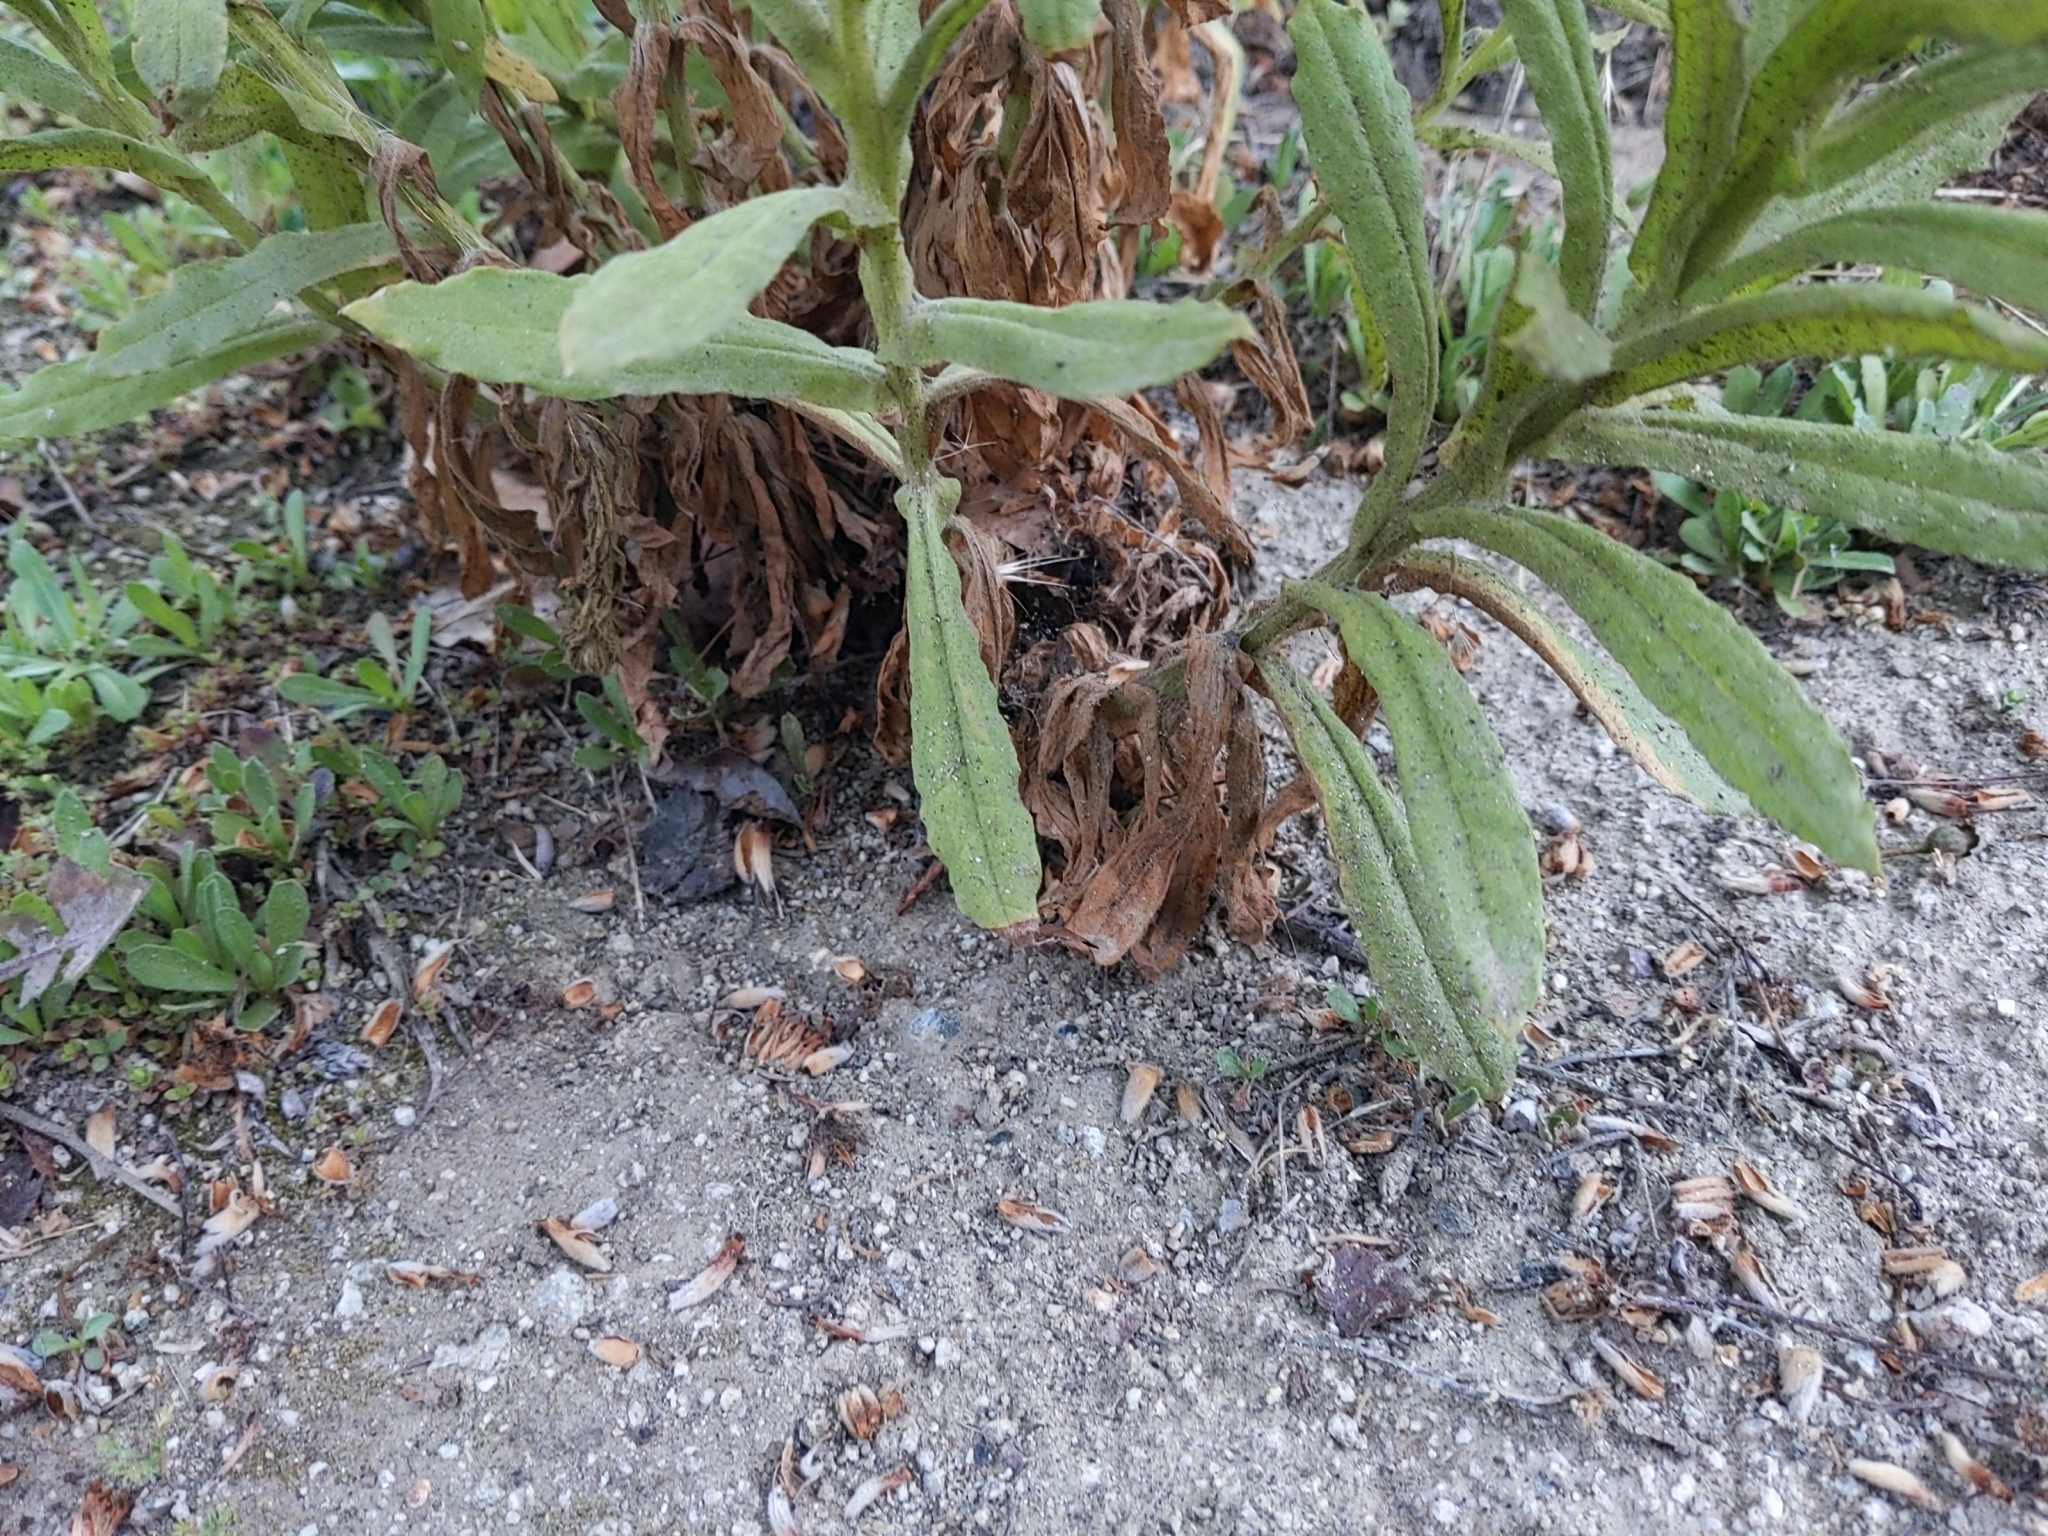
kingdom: Plantae
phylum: Tracheophyta
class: Magnoliopsida
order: Asterales
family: Asteraceae
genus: Pseudognaphalium
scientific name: Pseudognaphalium californicum
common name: California rabbit-tobacco
